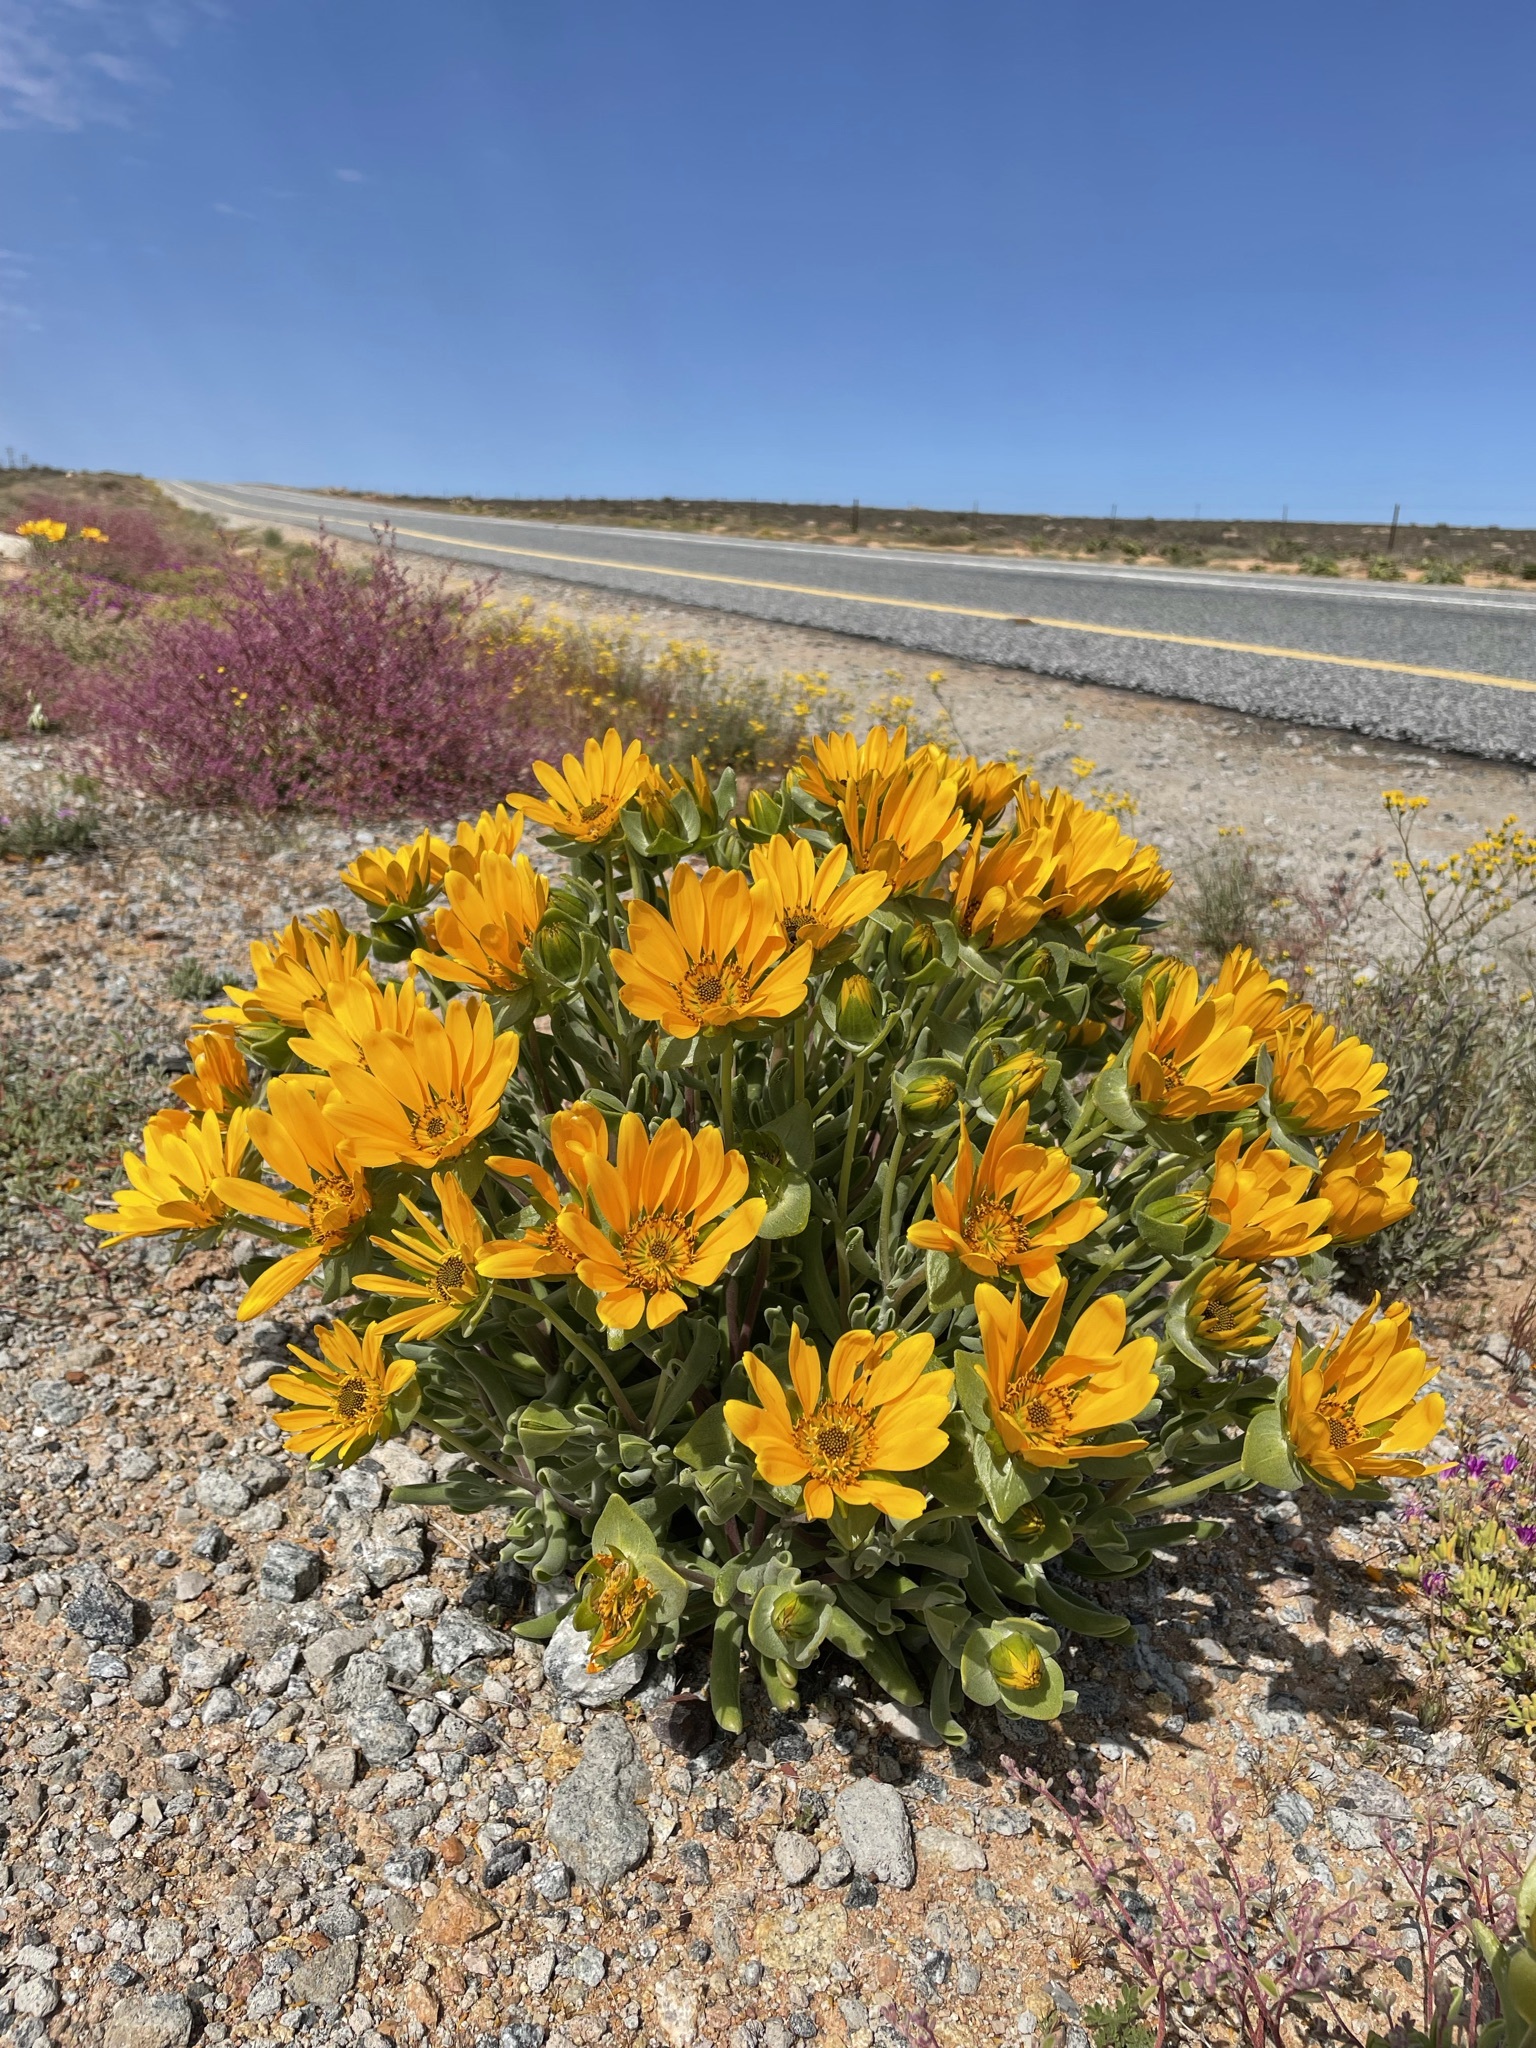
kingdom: Plantae
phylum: Tracheophyta
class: Magnoliopsida
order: Asterales
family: Asteraceae
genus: Didelta
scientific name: Didelta carnosa
